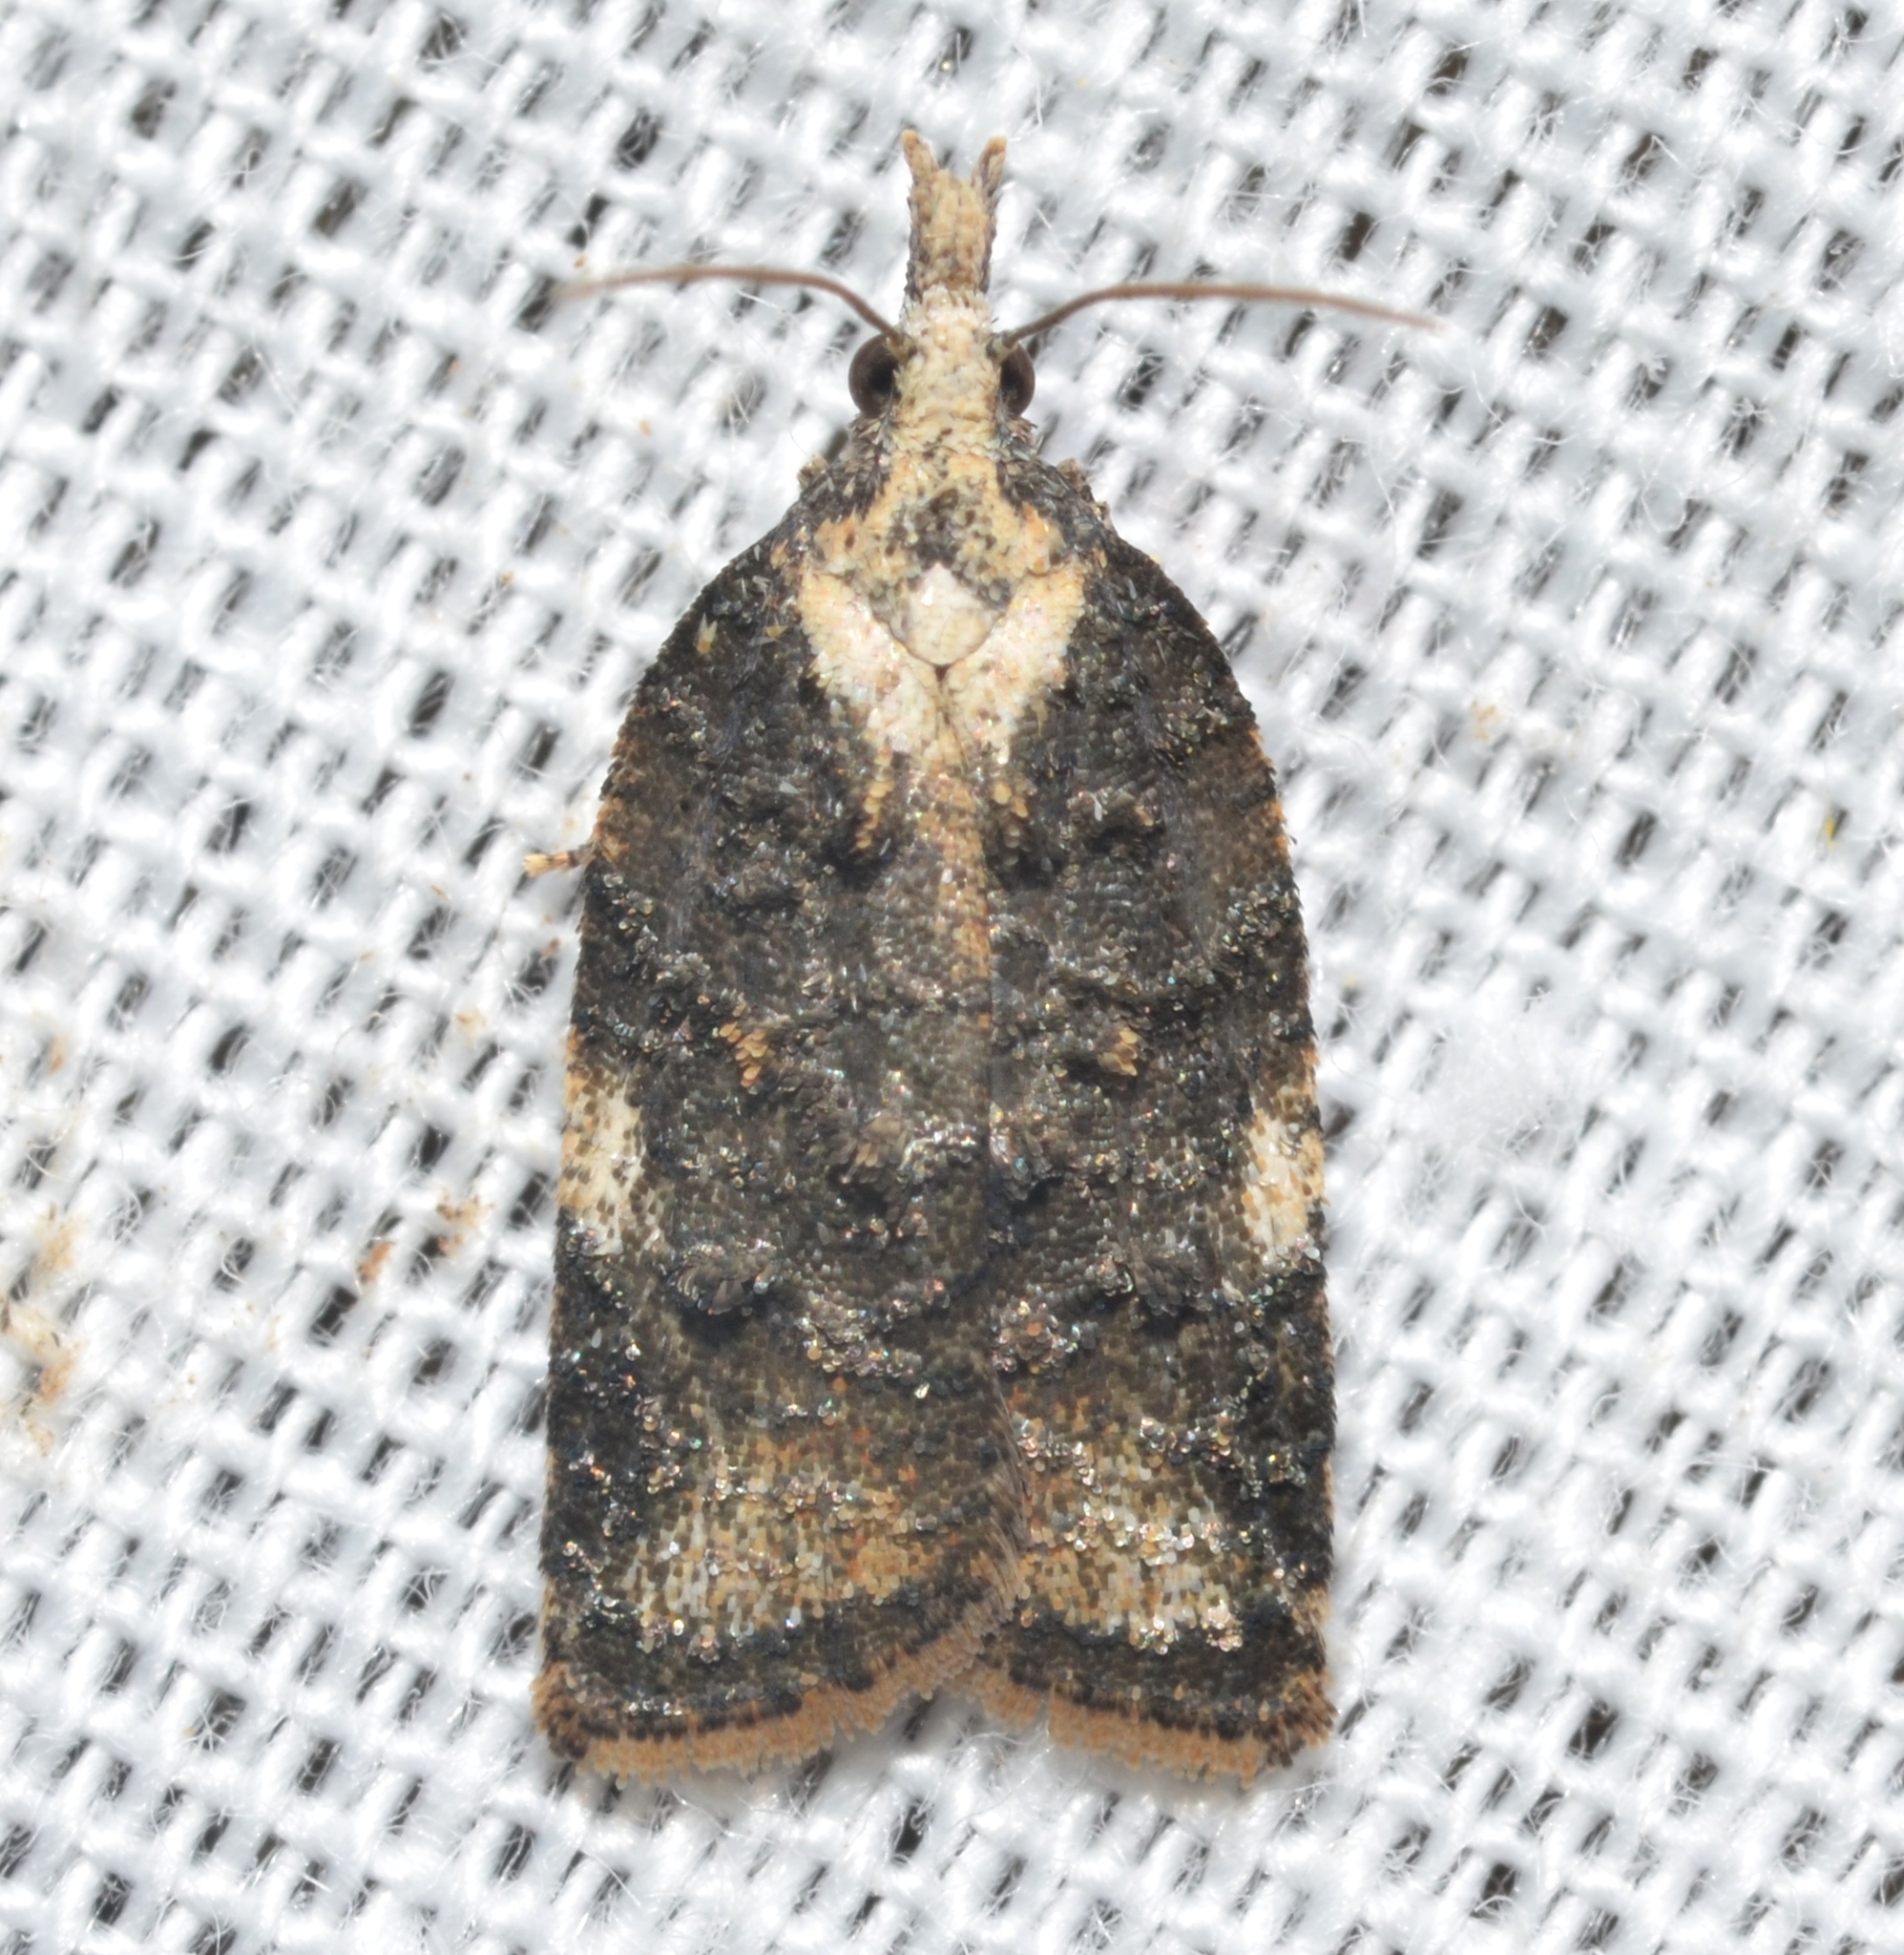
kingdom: Animalia
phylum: Arthropoda
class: Insecta
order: Lepidoptera
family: Tortricidae
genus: Platynota
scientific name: Platynota exasperatana
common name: Exasperating platynota moth
